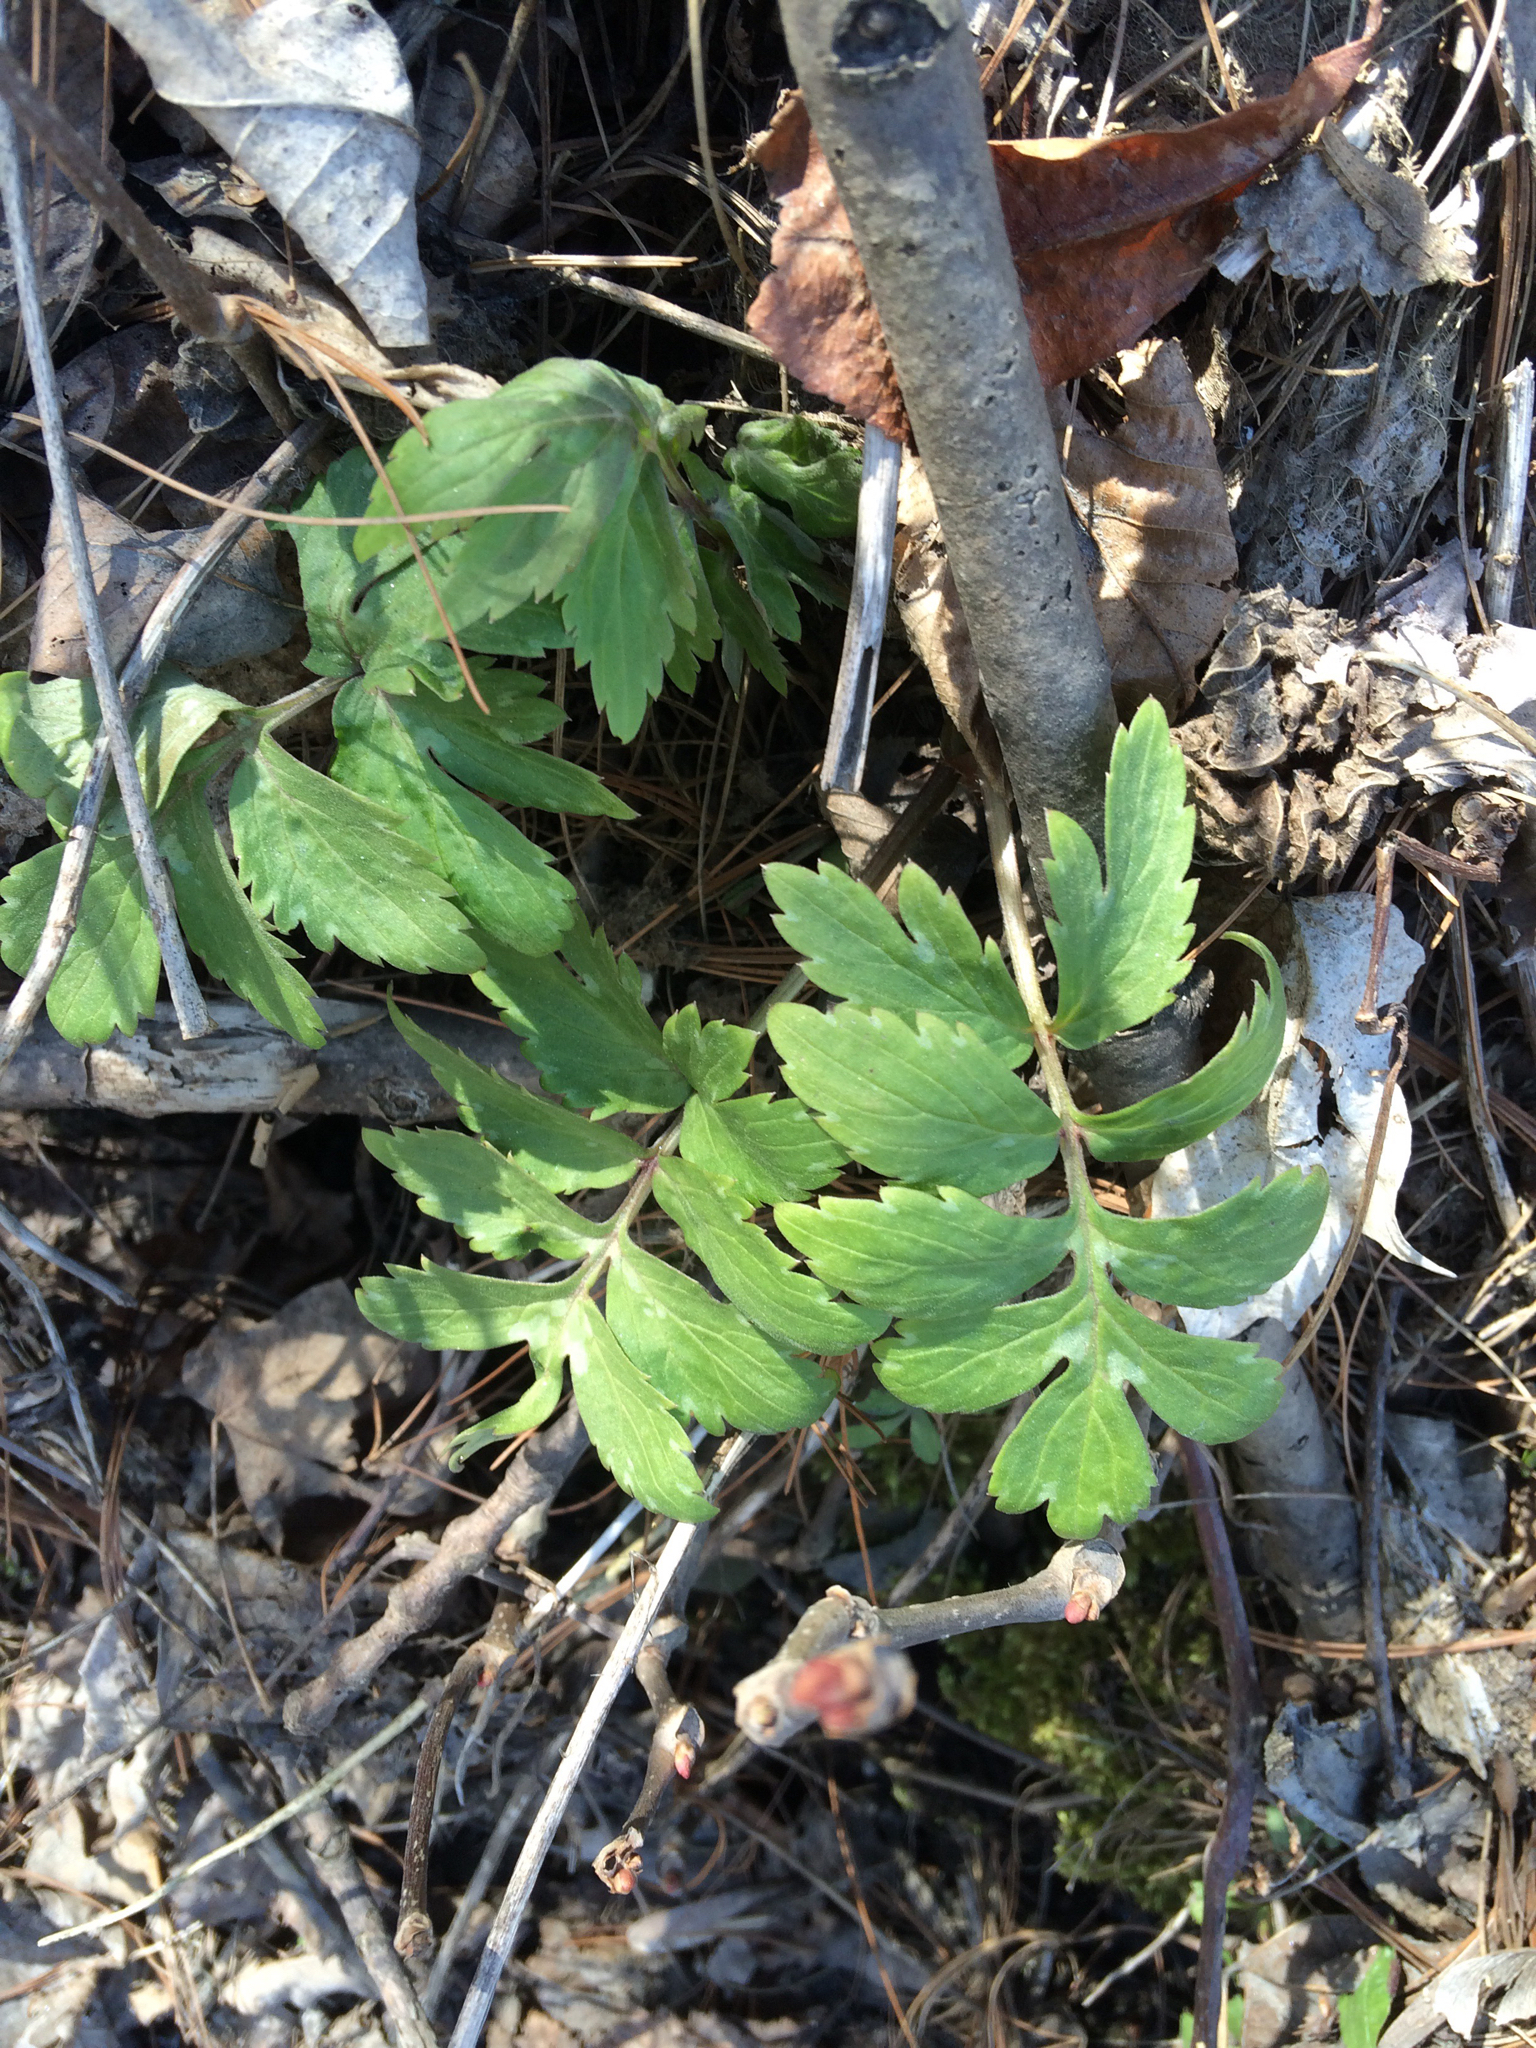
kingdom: Plantae
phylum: Tracheophyta
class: Magnoliopsida
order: Boraginales
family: Hydrophyllaceae
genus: Hydrophyllum
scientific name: Hydrophyllum virginianum
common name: Virginia waterleaf
